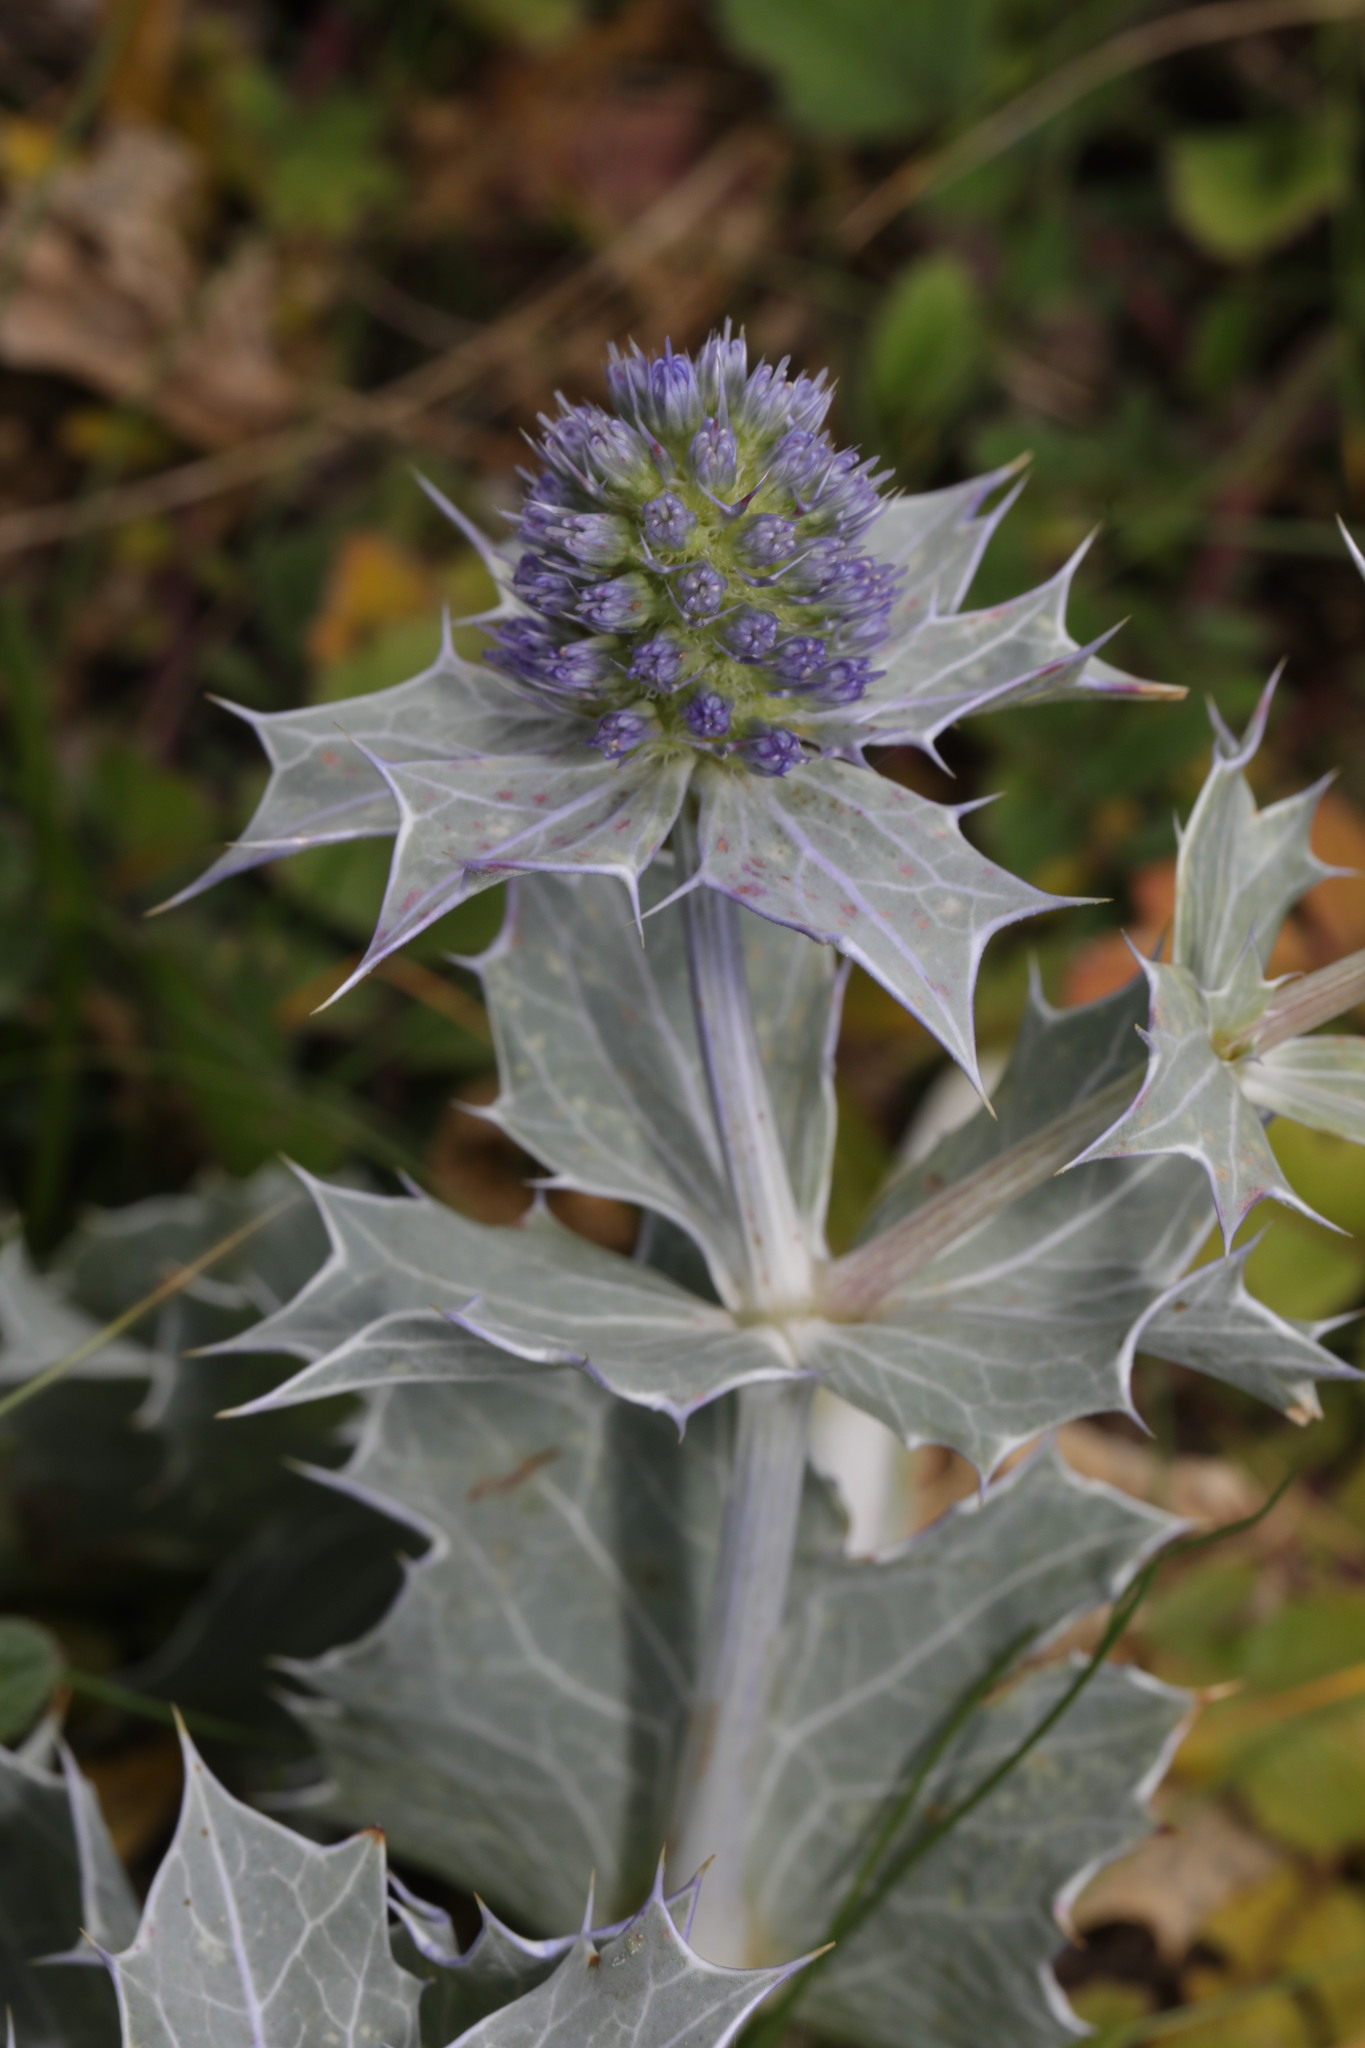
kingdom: Plantae
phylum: Tracheophyta
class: Magnoliopsida
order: Apiales
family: Apiaceae
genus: Eryngium
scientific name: Eryngium maritimum
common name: Sea-holly
